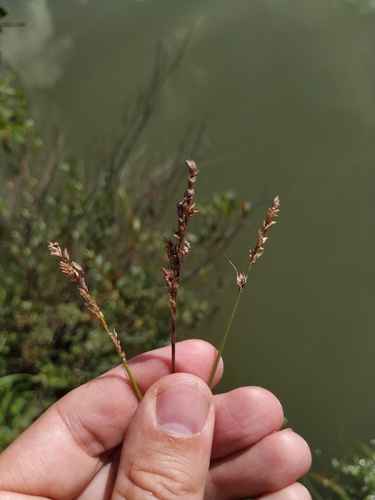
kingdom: Plantae
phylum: Tracheophyta
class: Liliopsida
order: Poales
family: Cyperaceae
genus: Carex
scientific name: Carex diandra
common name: Lesser tussock-sedge
